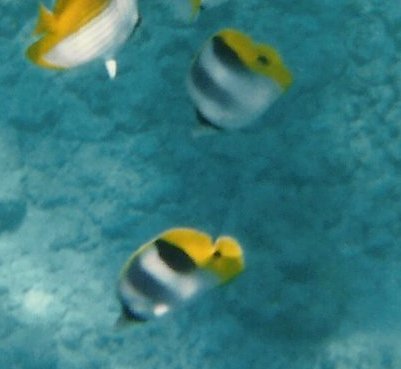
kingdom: Animalia
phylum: Chordata
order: Perciformes
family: Chaetodontidae
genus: Chaetodon
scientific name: Chaetodon ulietensis
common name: Pacific double-saddle butterflyfish
